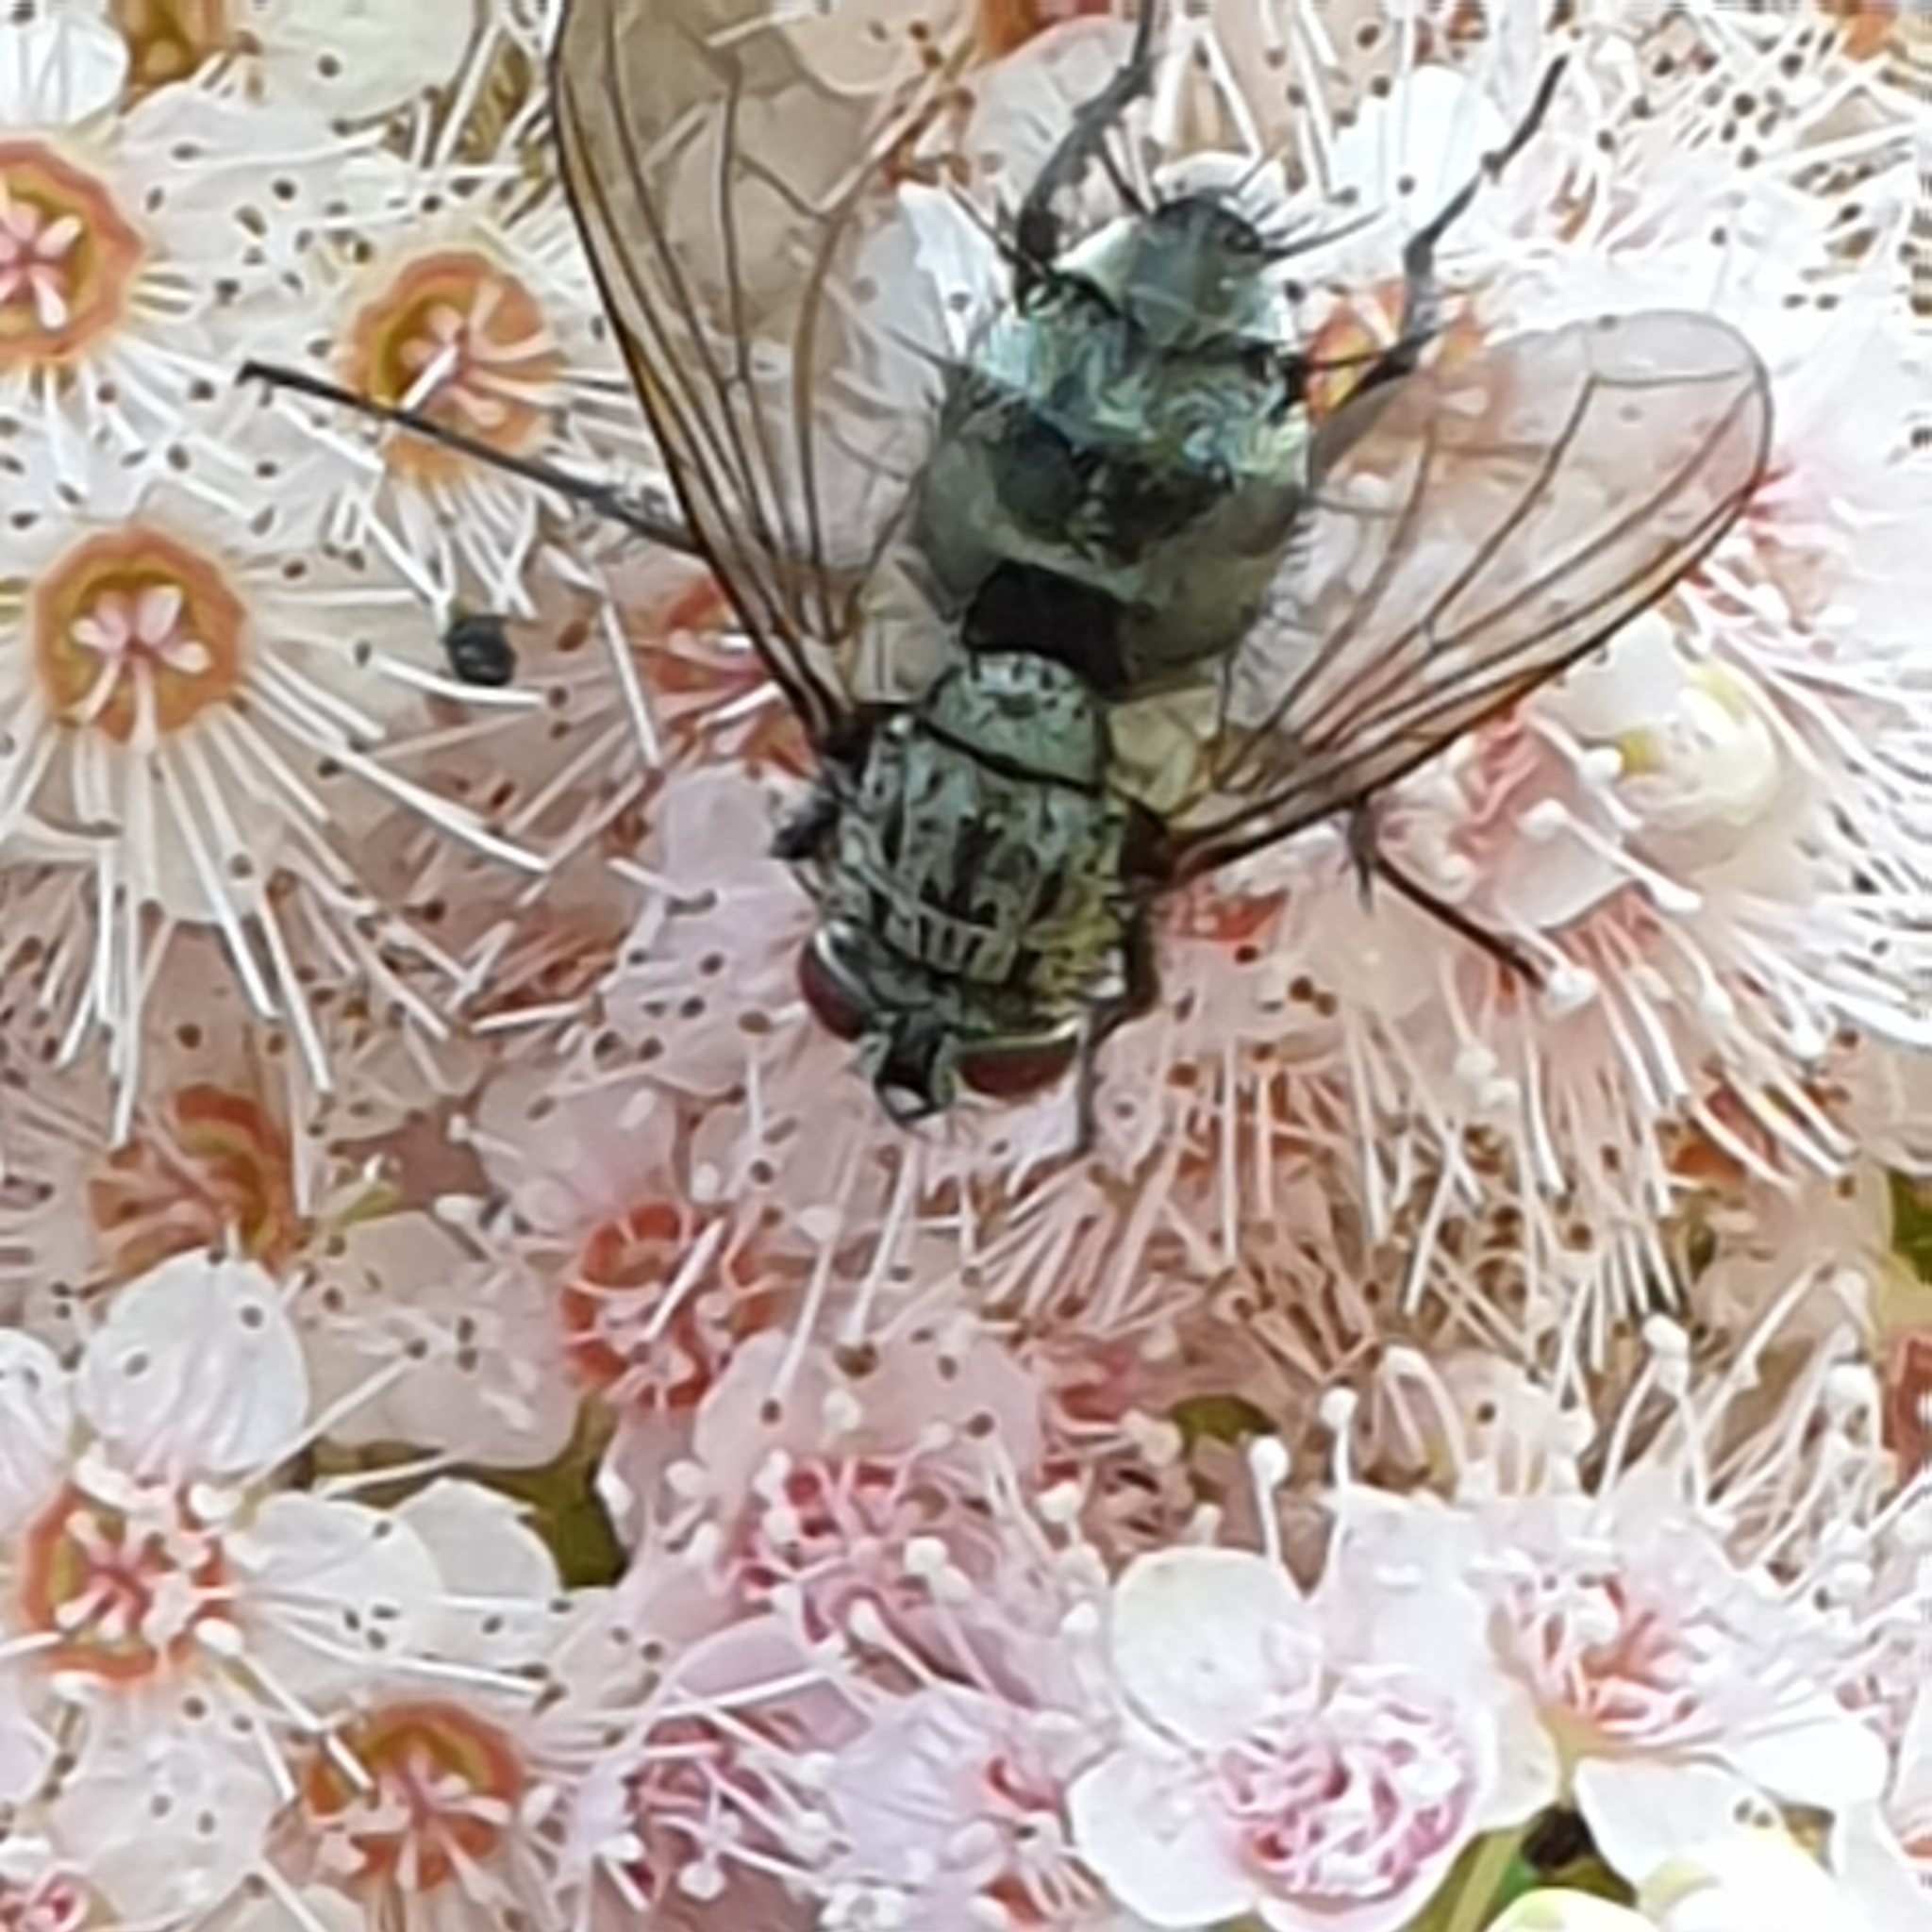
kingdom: Animalia
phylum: Arthropoda
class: Insecta
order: Diptera
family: Tachinidae
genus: Dinera
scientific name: Dinera ferina
